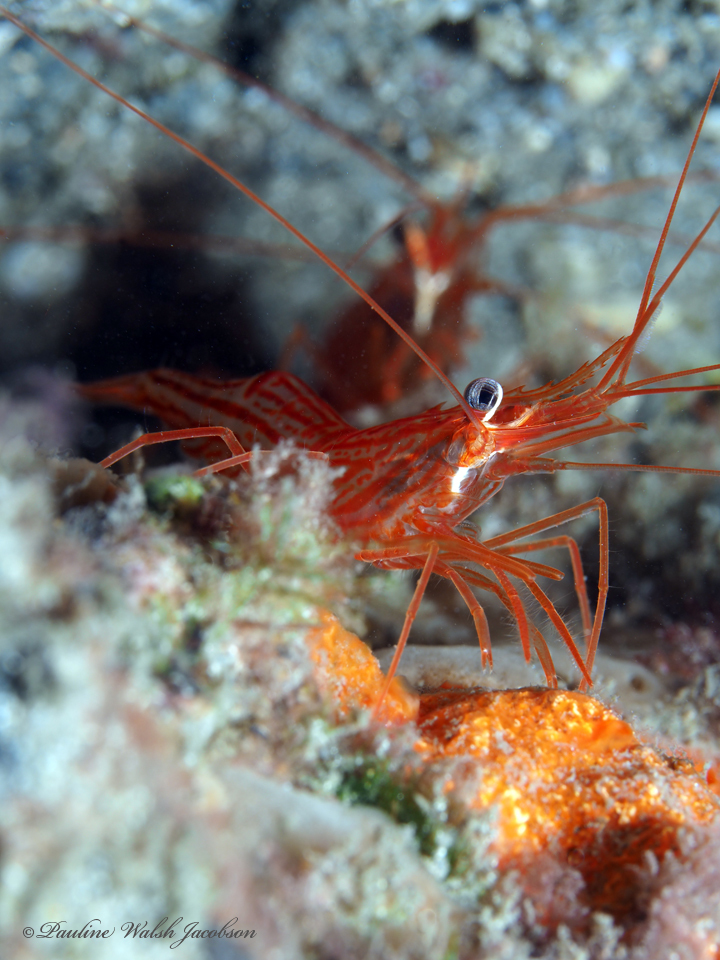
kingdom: Animalia
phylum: Arthropoda
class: Malacostraca
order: Decapoda
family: Lysmatidae
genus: Lysmata
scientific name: Lysmata rafa
